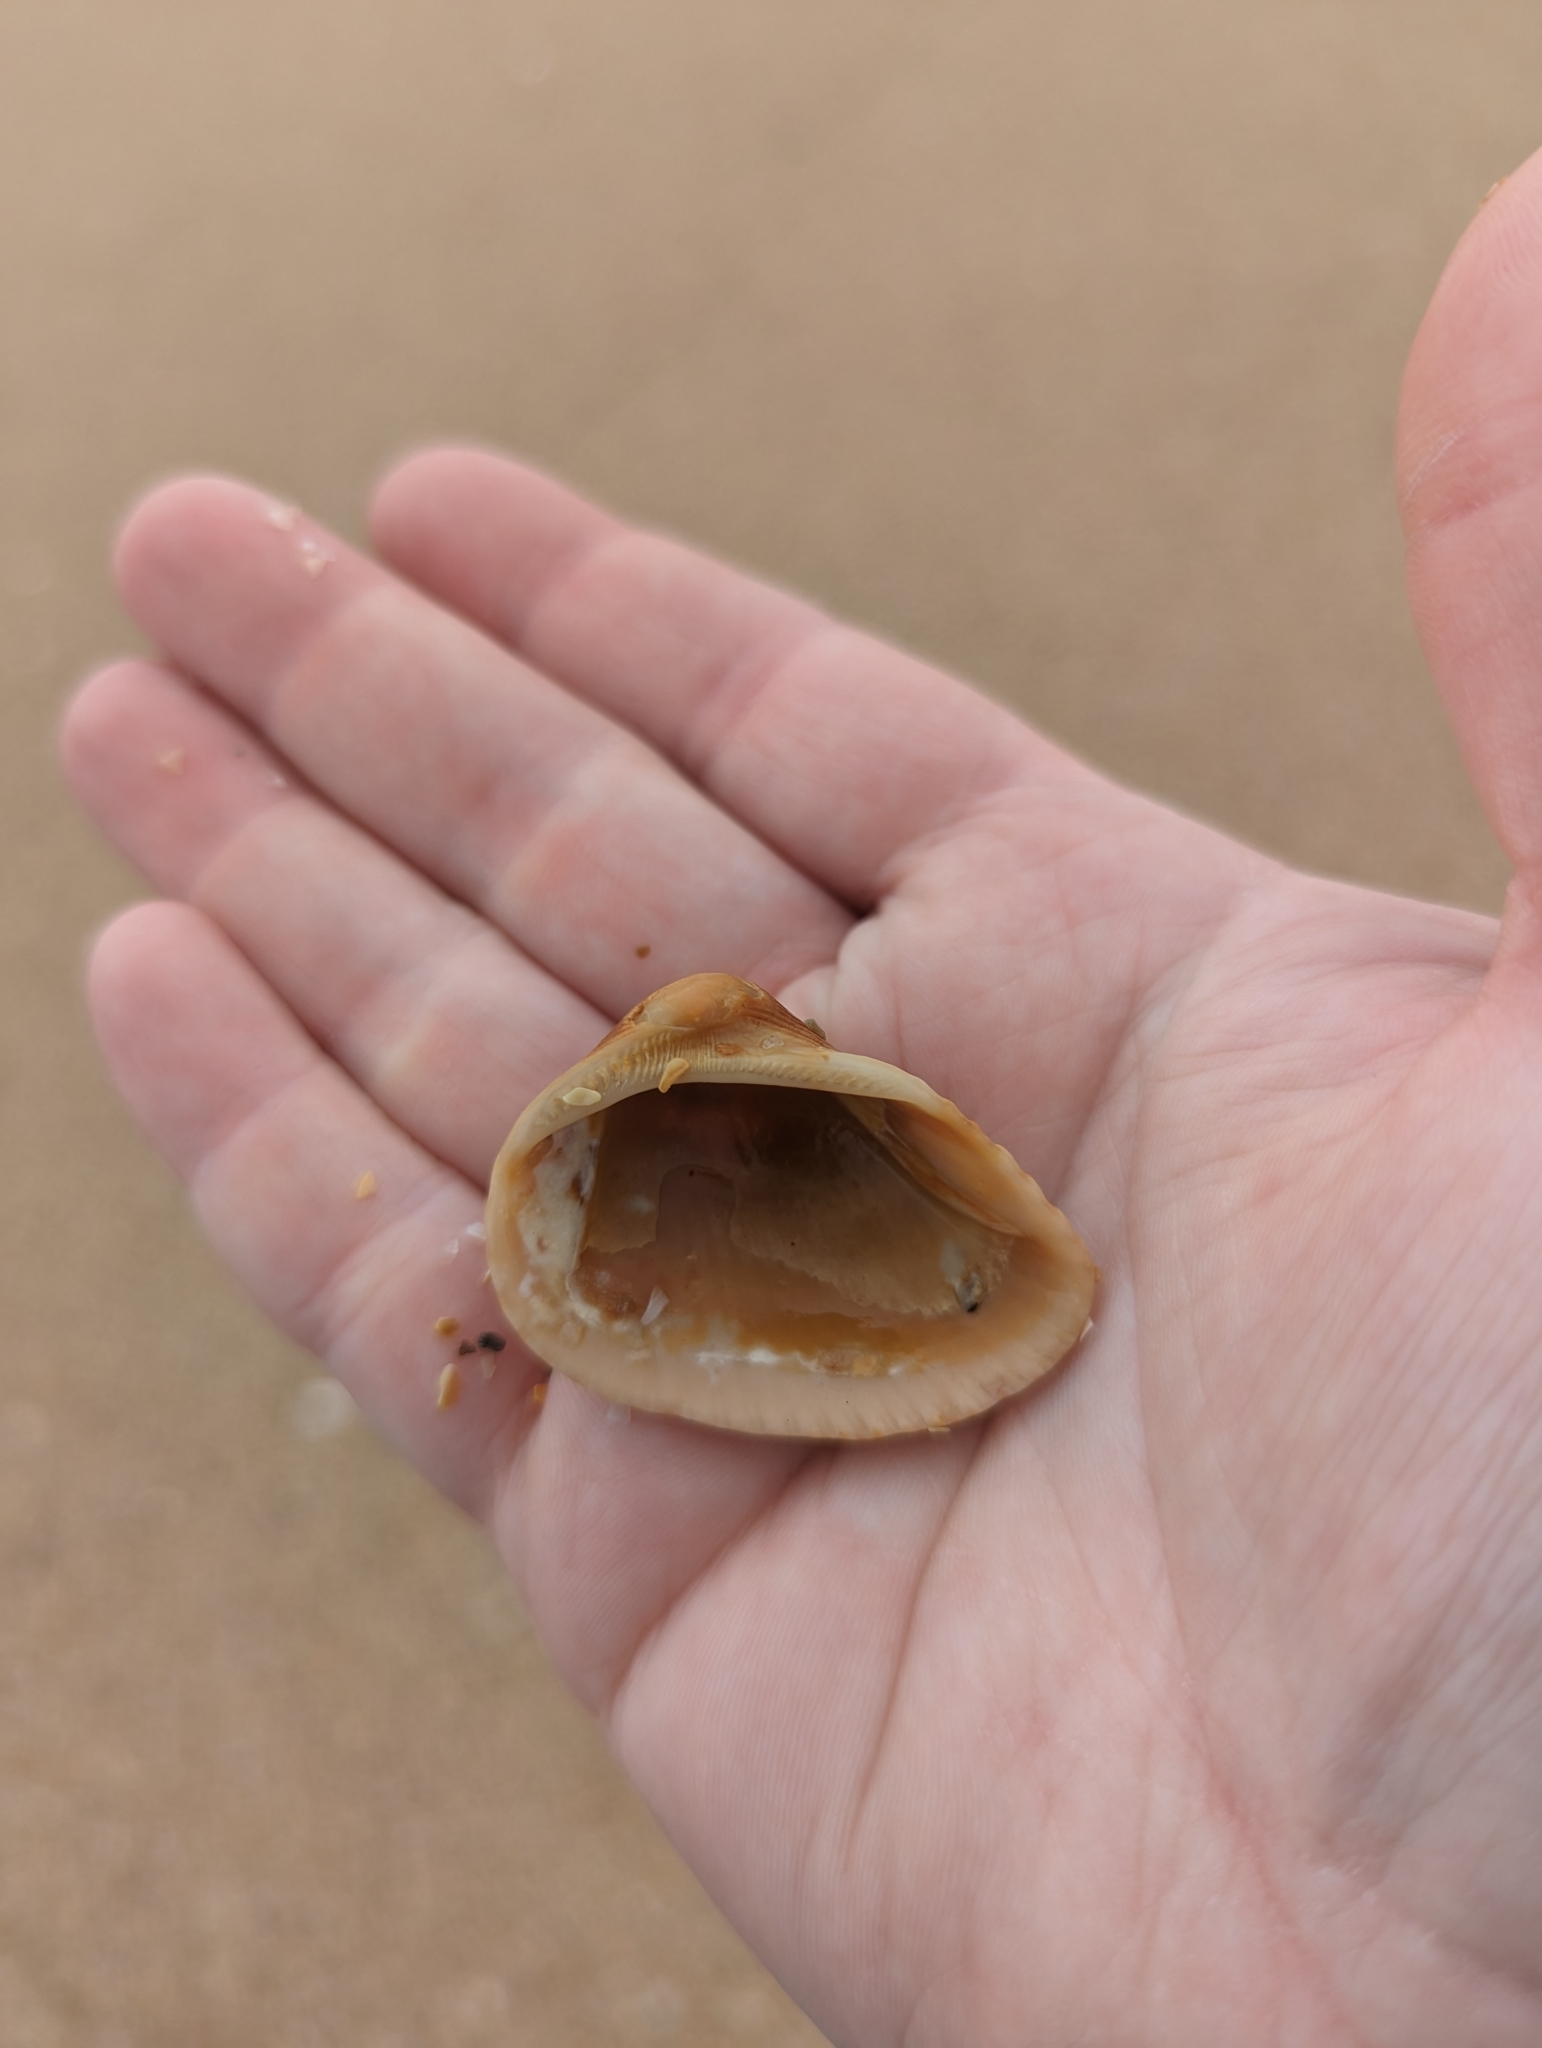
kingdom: Animalia
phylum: Mollusca
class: Bivalvia
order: Arcida
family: Noetiidae
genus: Noetia
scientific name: Noetia ponderosa
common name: Ponderous ark
